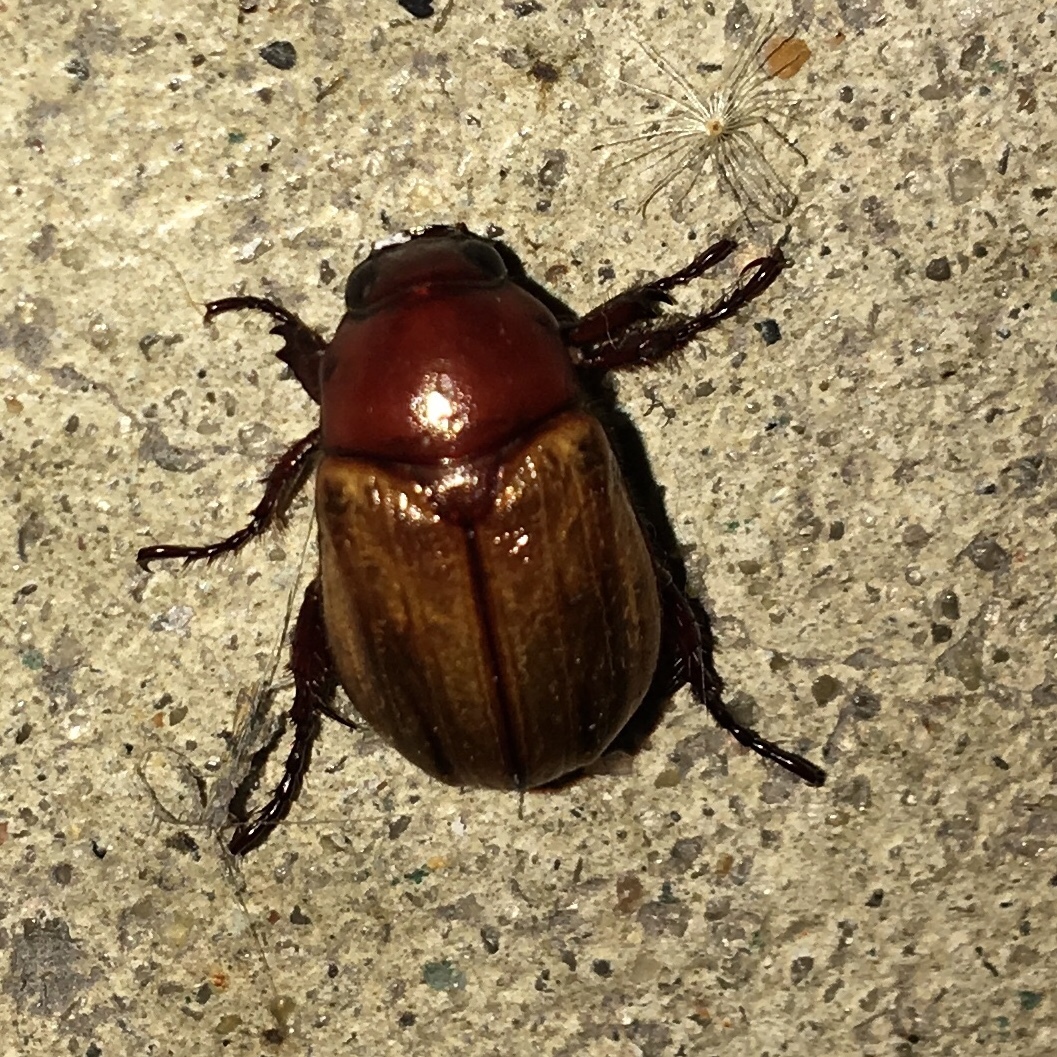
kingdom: Animalia
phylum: Arthropoda
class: Insecta
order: Coleoptera
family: Scarabaeidae
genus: Paranomala
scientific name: Paranomala flavipennis
